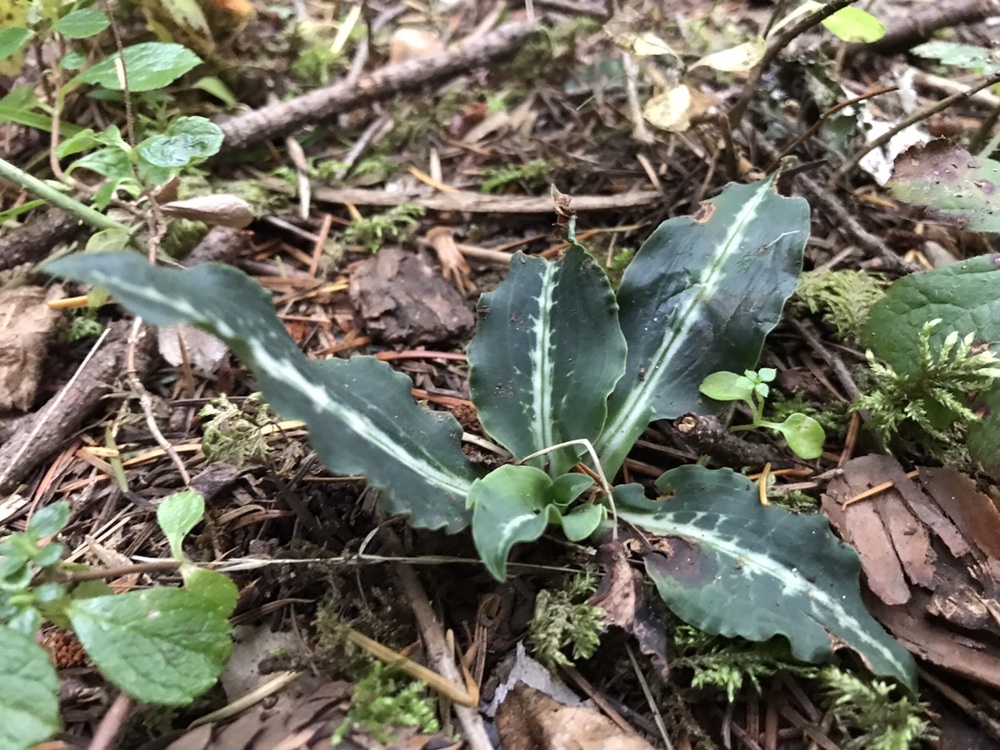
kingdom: Plantae
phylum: Tracheophyta
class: Liliopsida
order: Asparagales
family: Orchidaceae
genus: Goodyera
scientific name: Goodyera oblongifolia
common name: Giant rattlesnake-plantain
